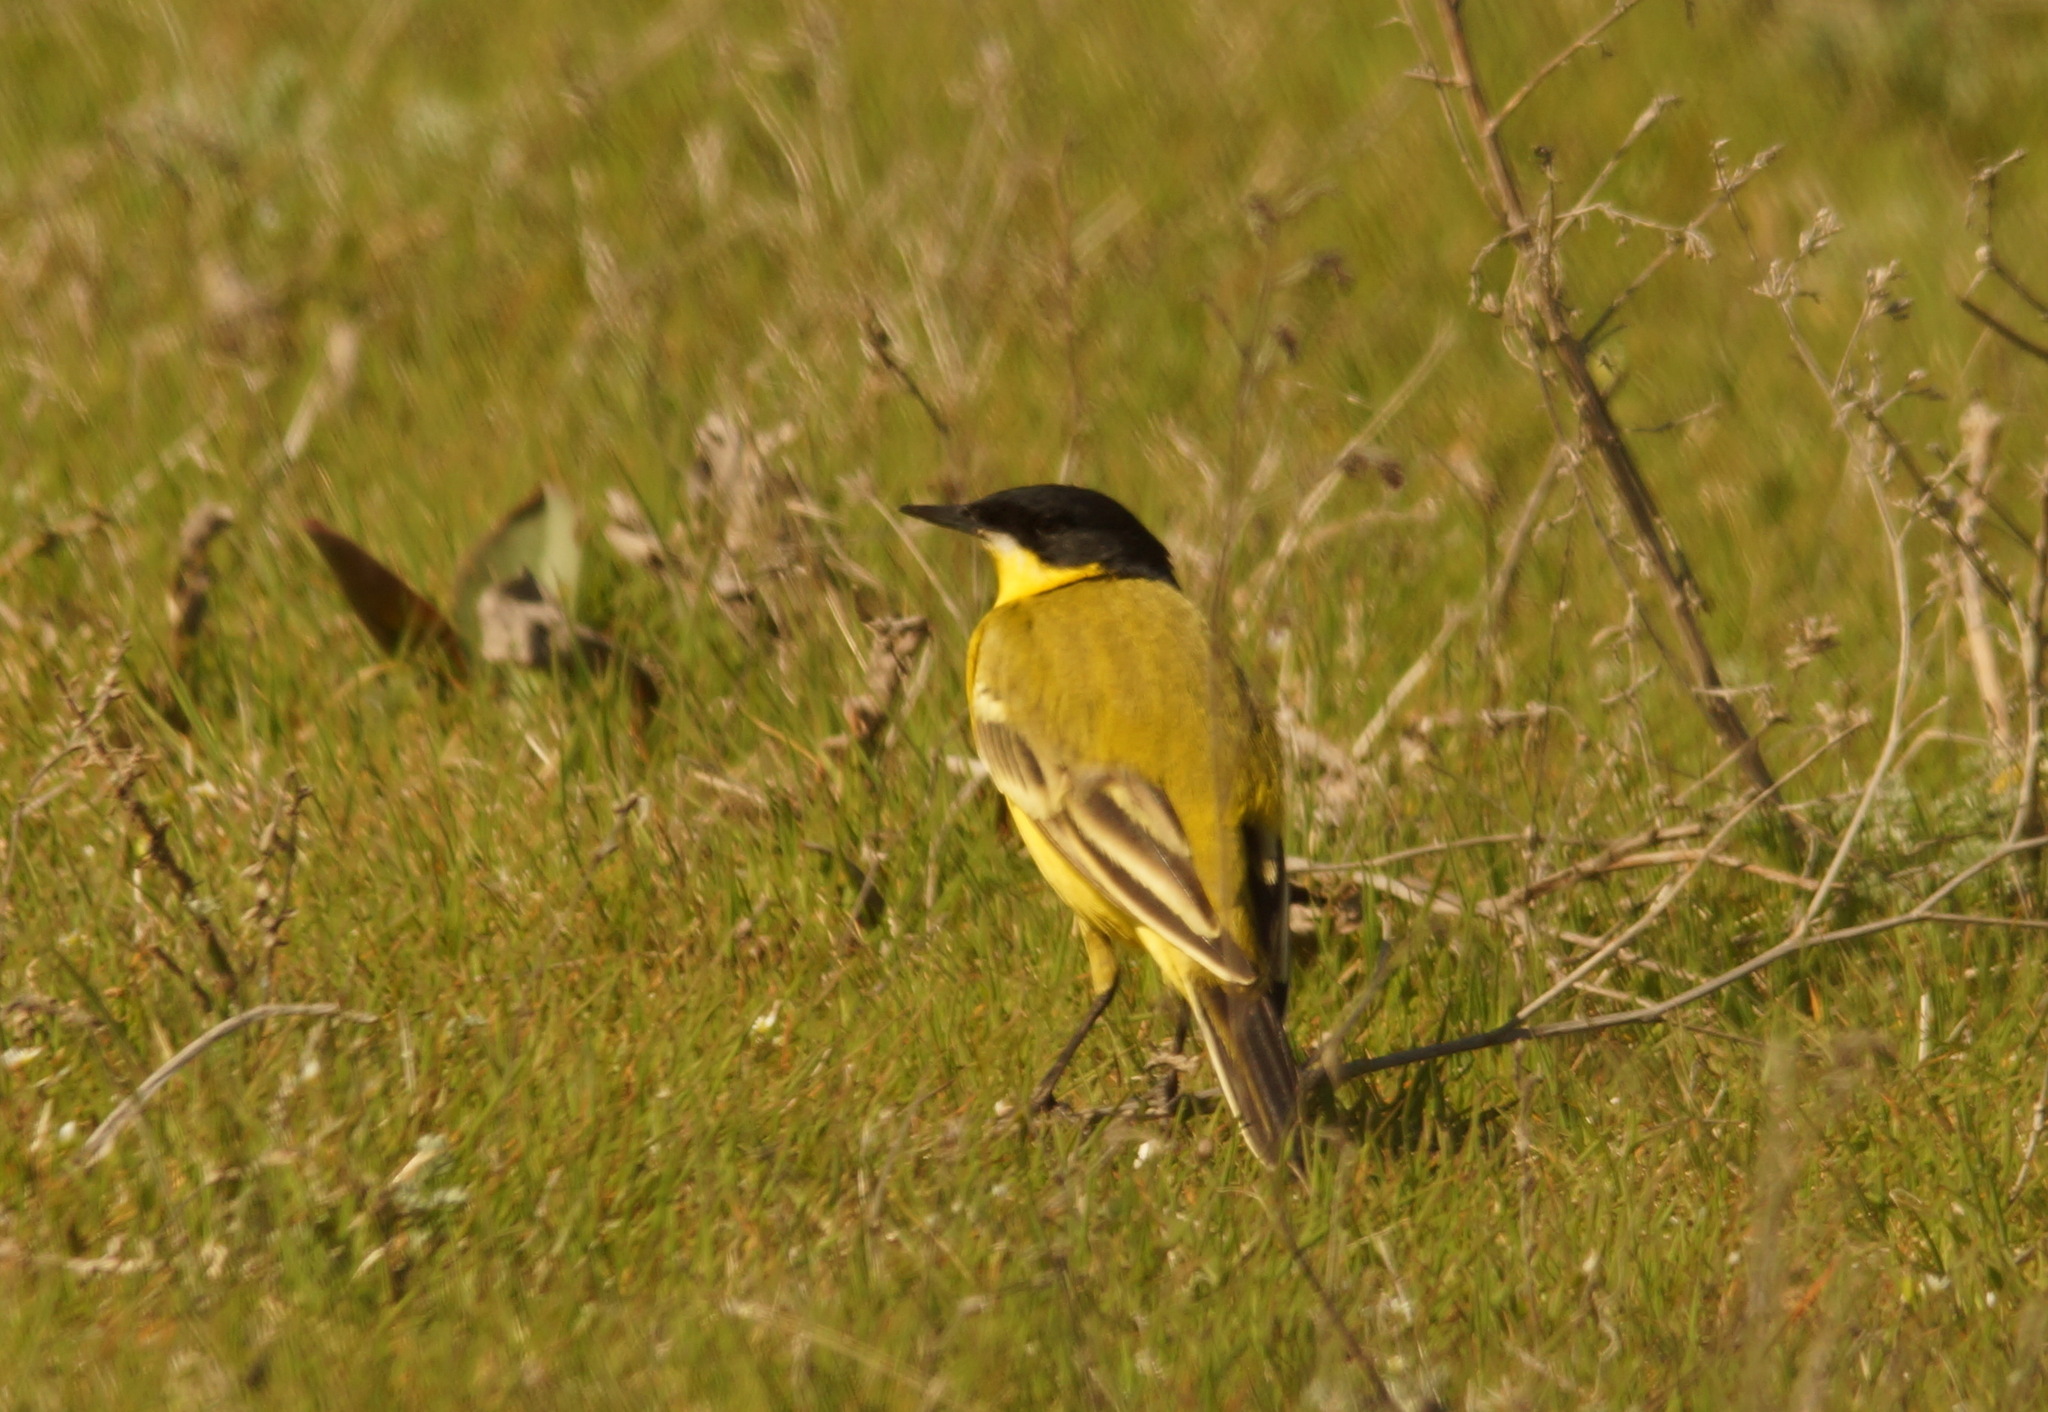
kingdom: Animalia
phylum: Chordata
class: Aves
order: Passeriformes
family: Motacillidae
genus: Motacilla
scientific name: Motacilla flava
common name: Western yellow wagtail
